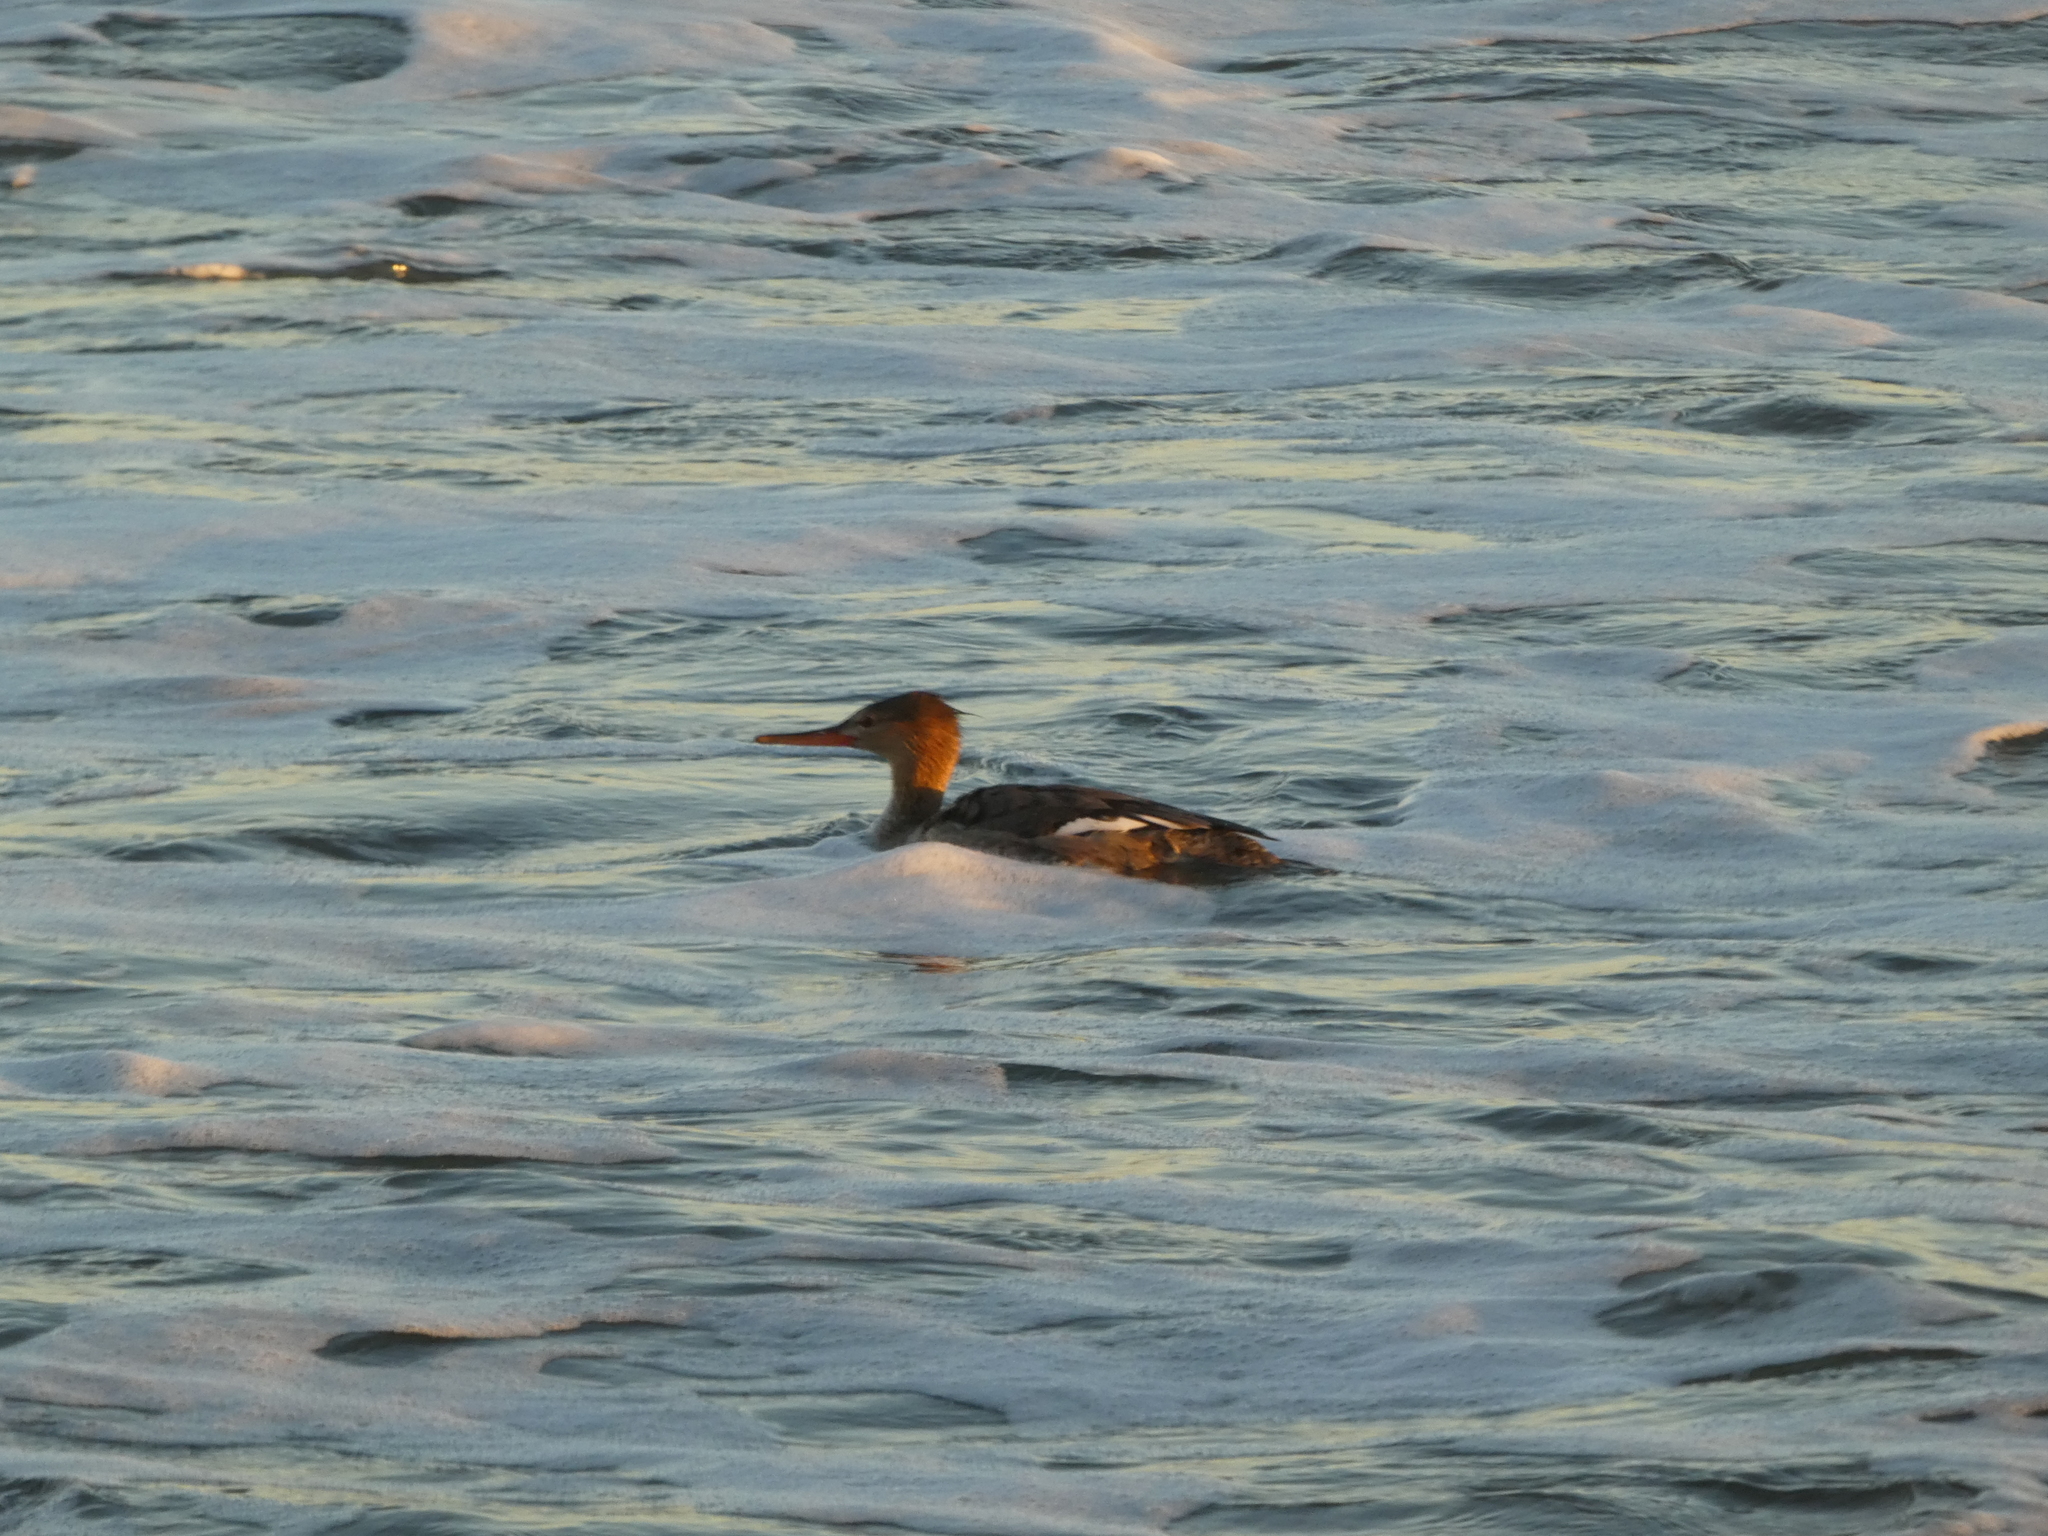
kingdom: Animalia
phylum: Chordata
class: Aves
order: Anseriformes
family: Anatidae
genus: Mergus
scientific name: Mergus serrator
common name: Red-breasted merganser
